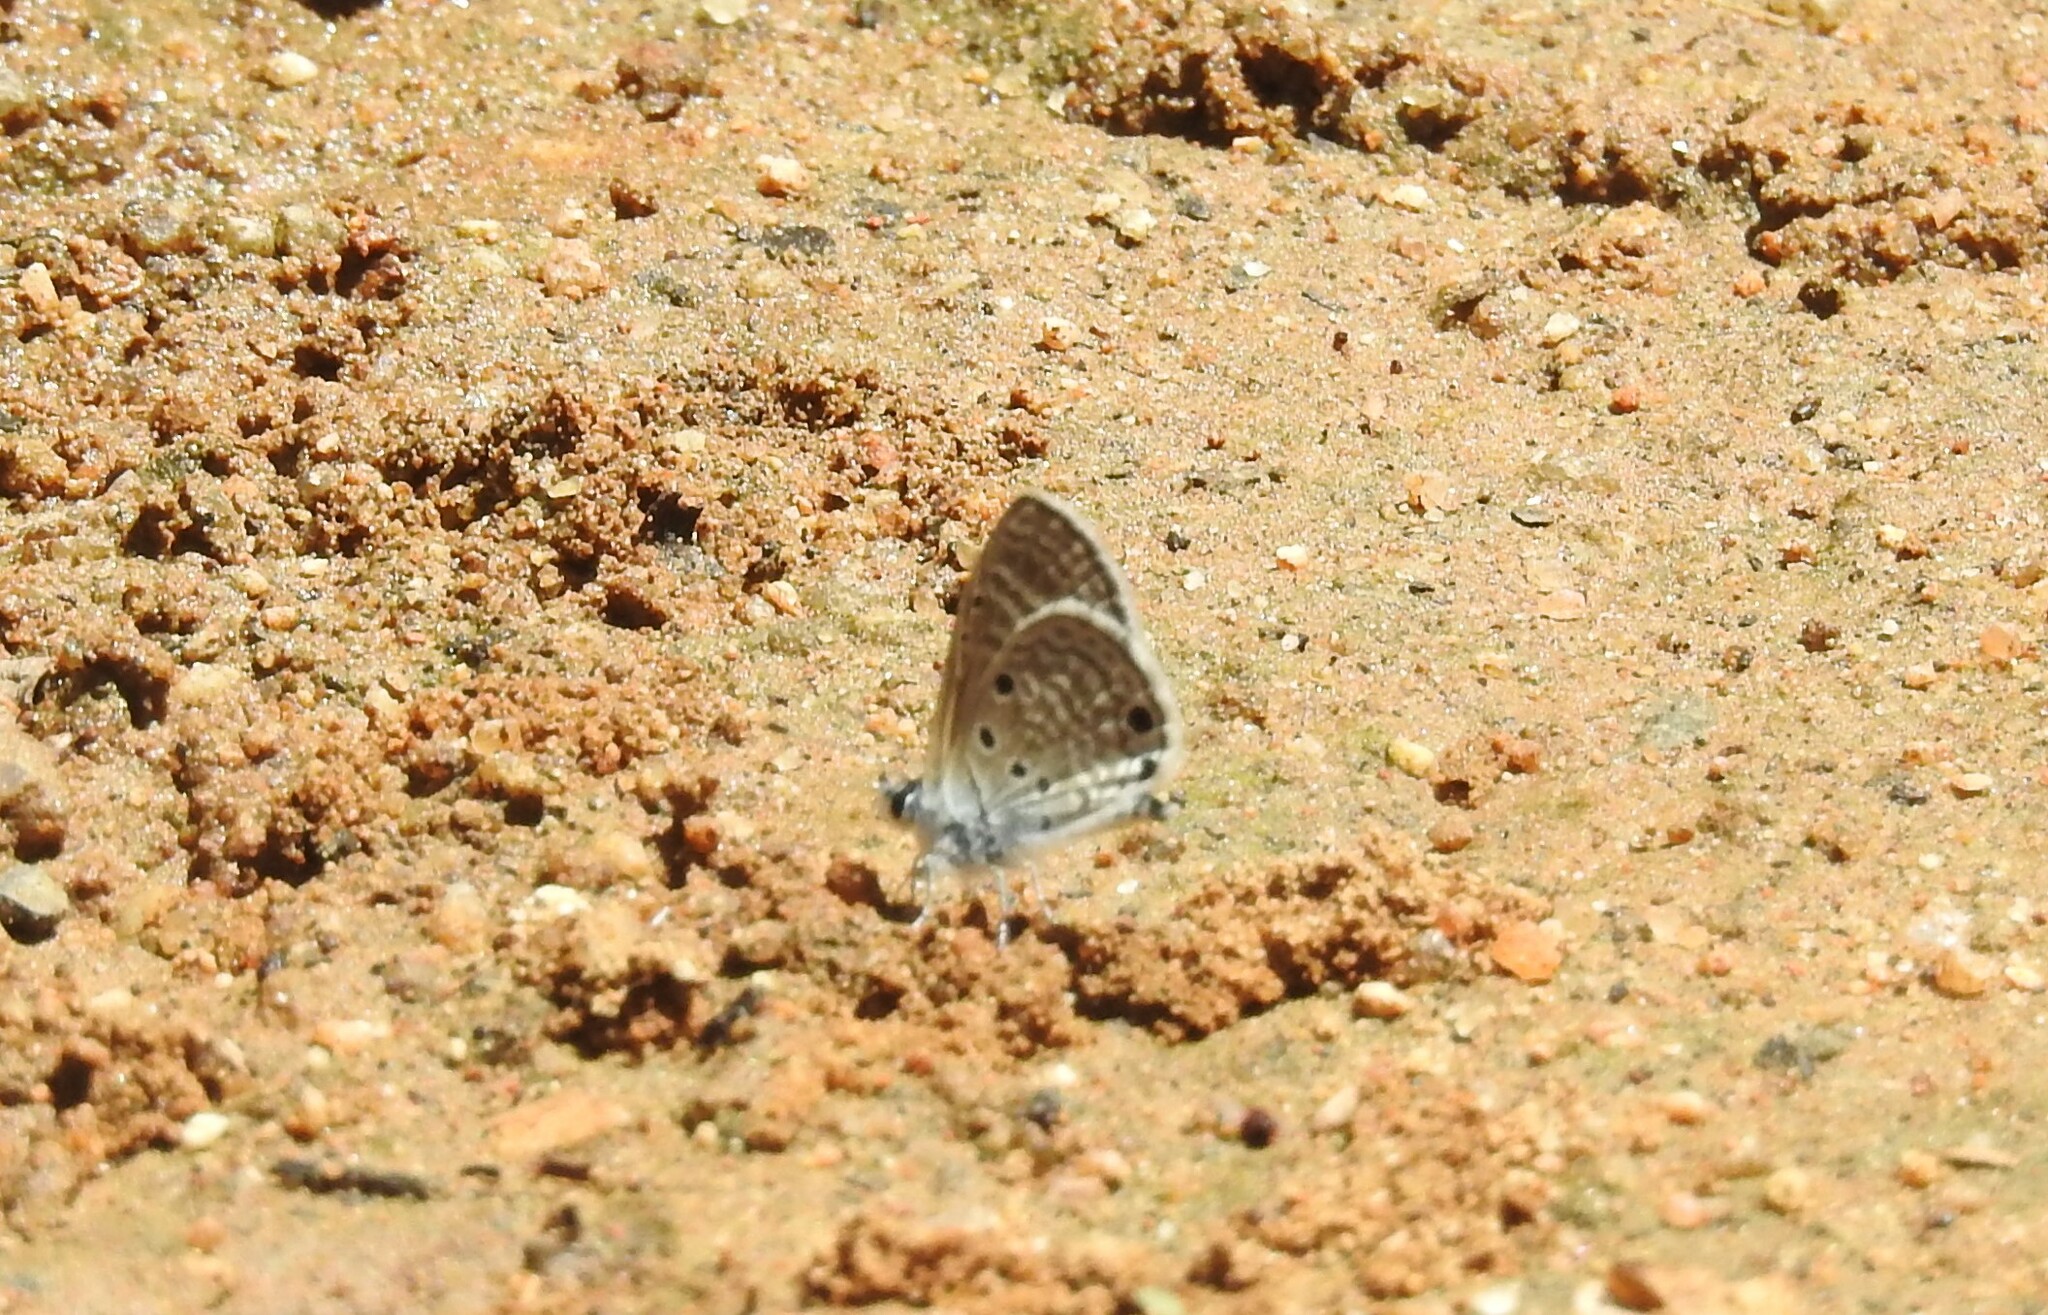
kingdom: Animalia
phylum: Arthropoda
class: Insecta
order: Lepidoptera
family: Lycaenidae
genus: Azanus
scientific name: Azanus ubaldus
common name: Desert babul blue
